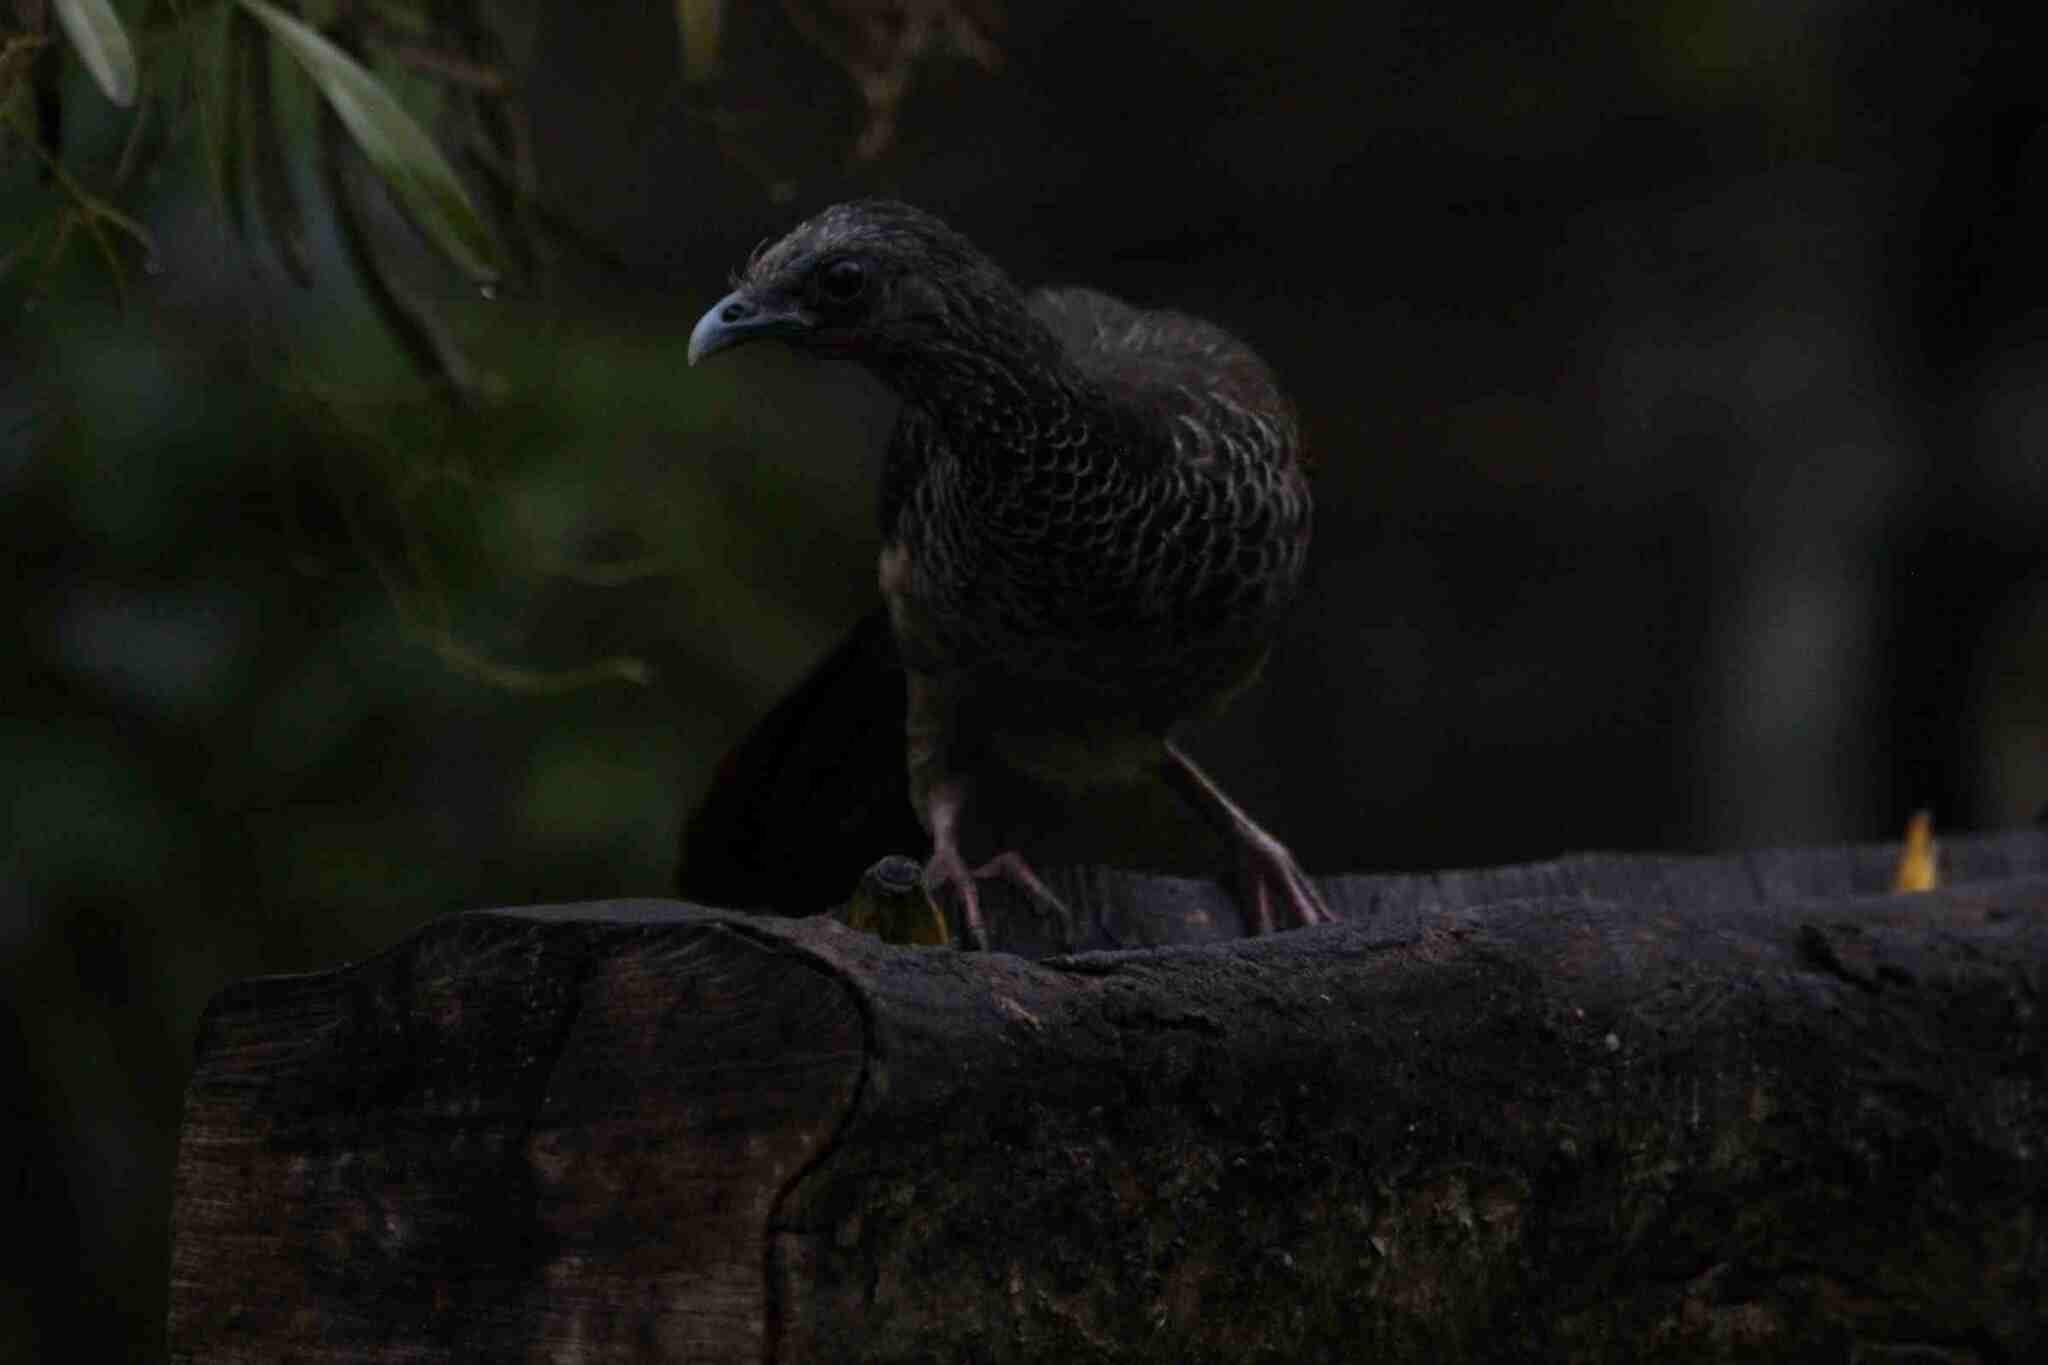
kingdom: Animalia
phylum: Chordata
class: Aves
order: Galliformes
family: Cracidae
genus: Ortalis
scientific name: Ortalis columbiana
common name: Colombian chachalaca
